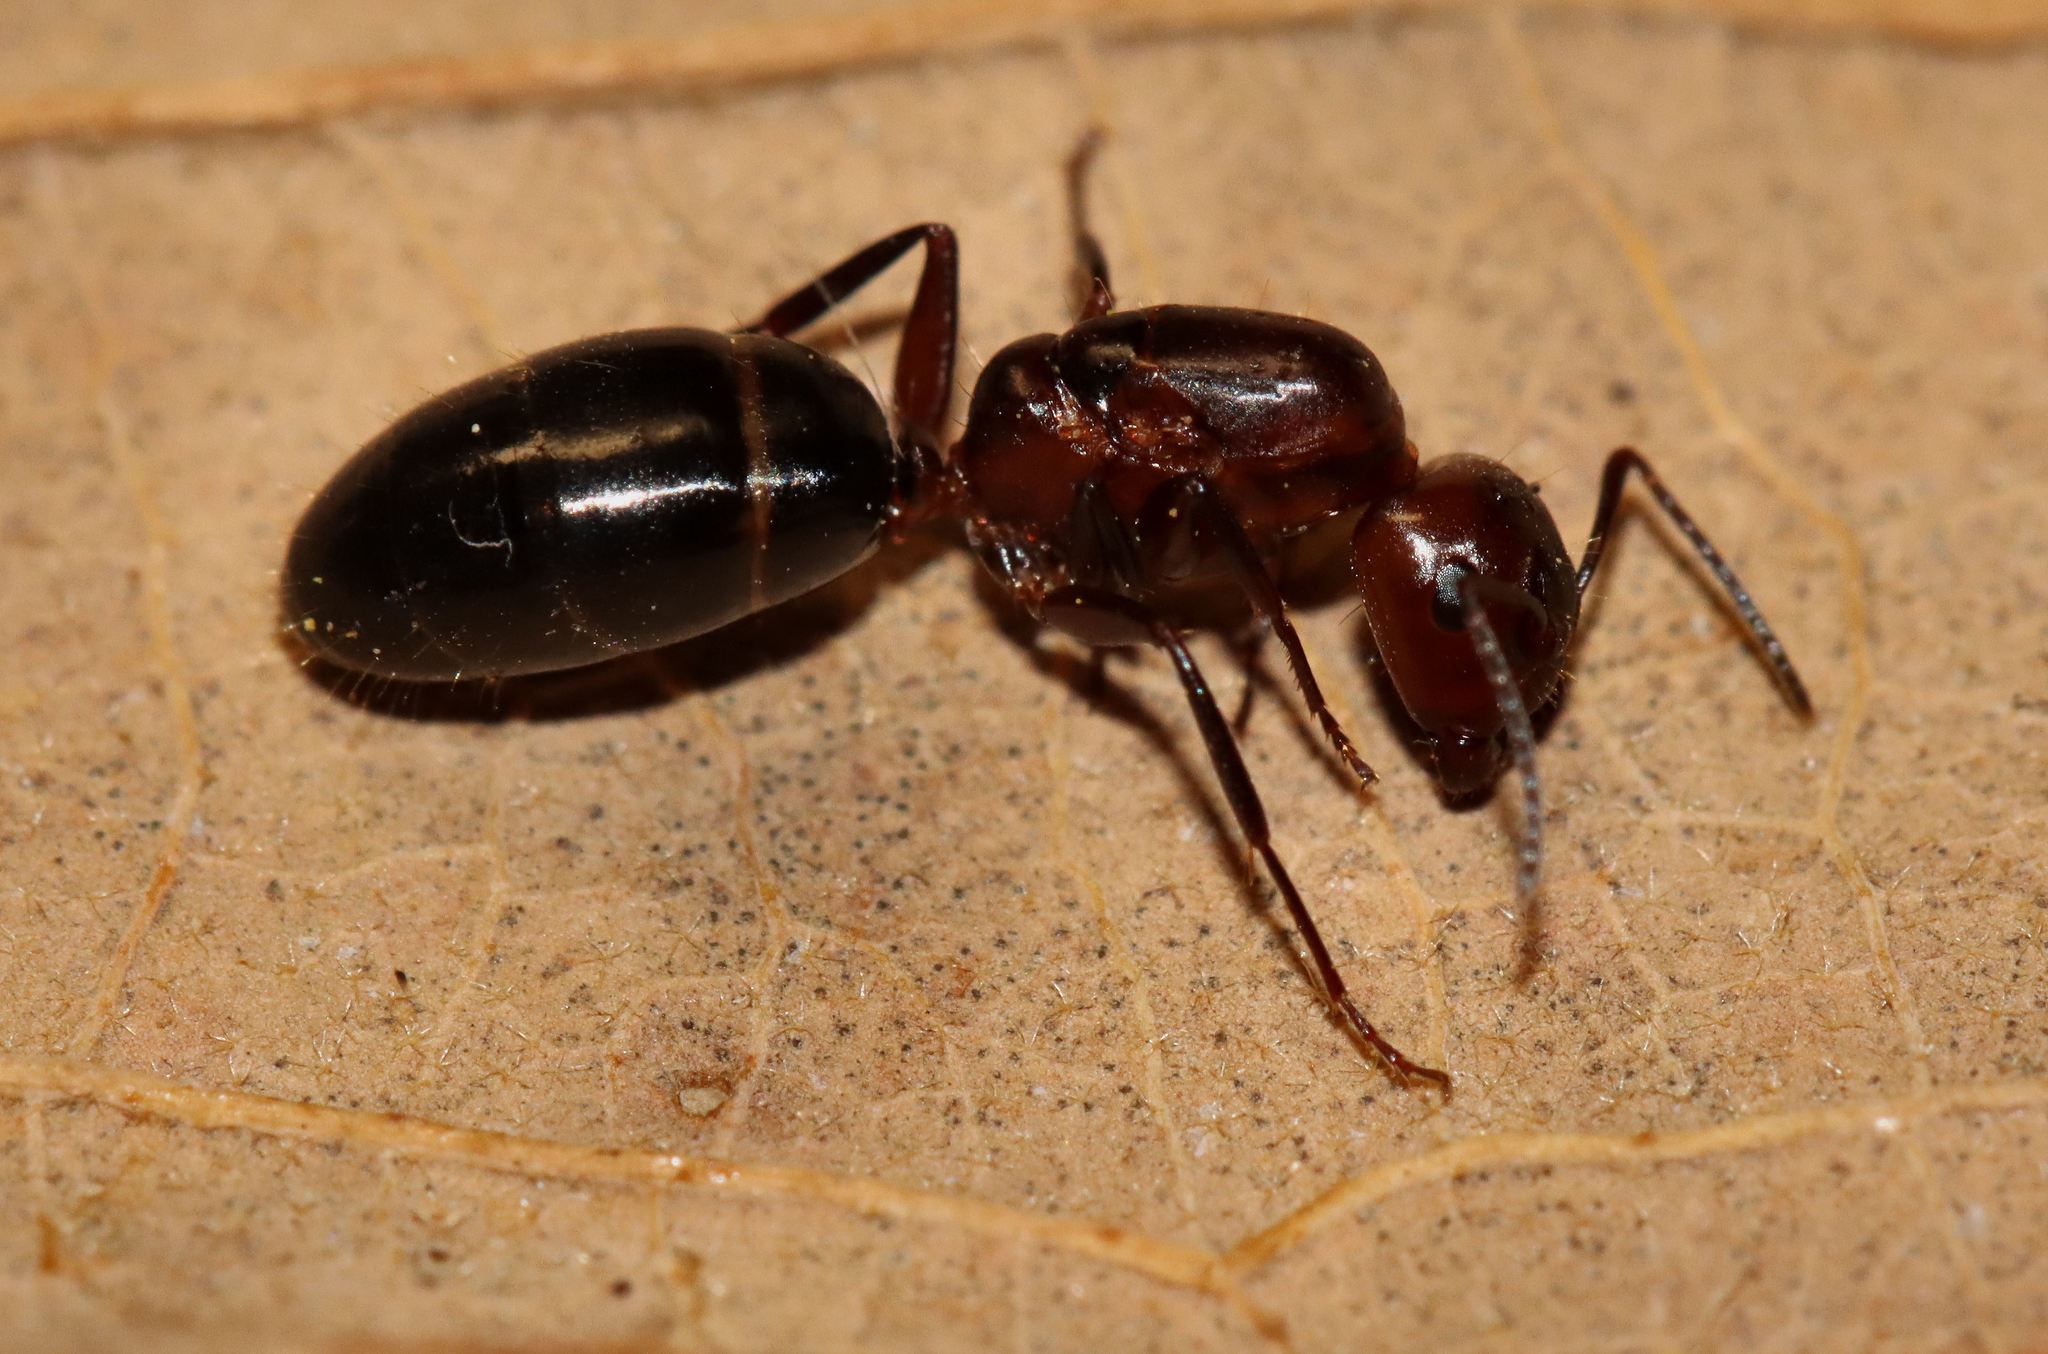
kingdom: Animalia
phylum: Arthropoda
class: Insecta
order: Hymenoptera
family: Formicidae
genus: Camponotus
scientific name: Camponotus decipiens
